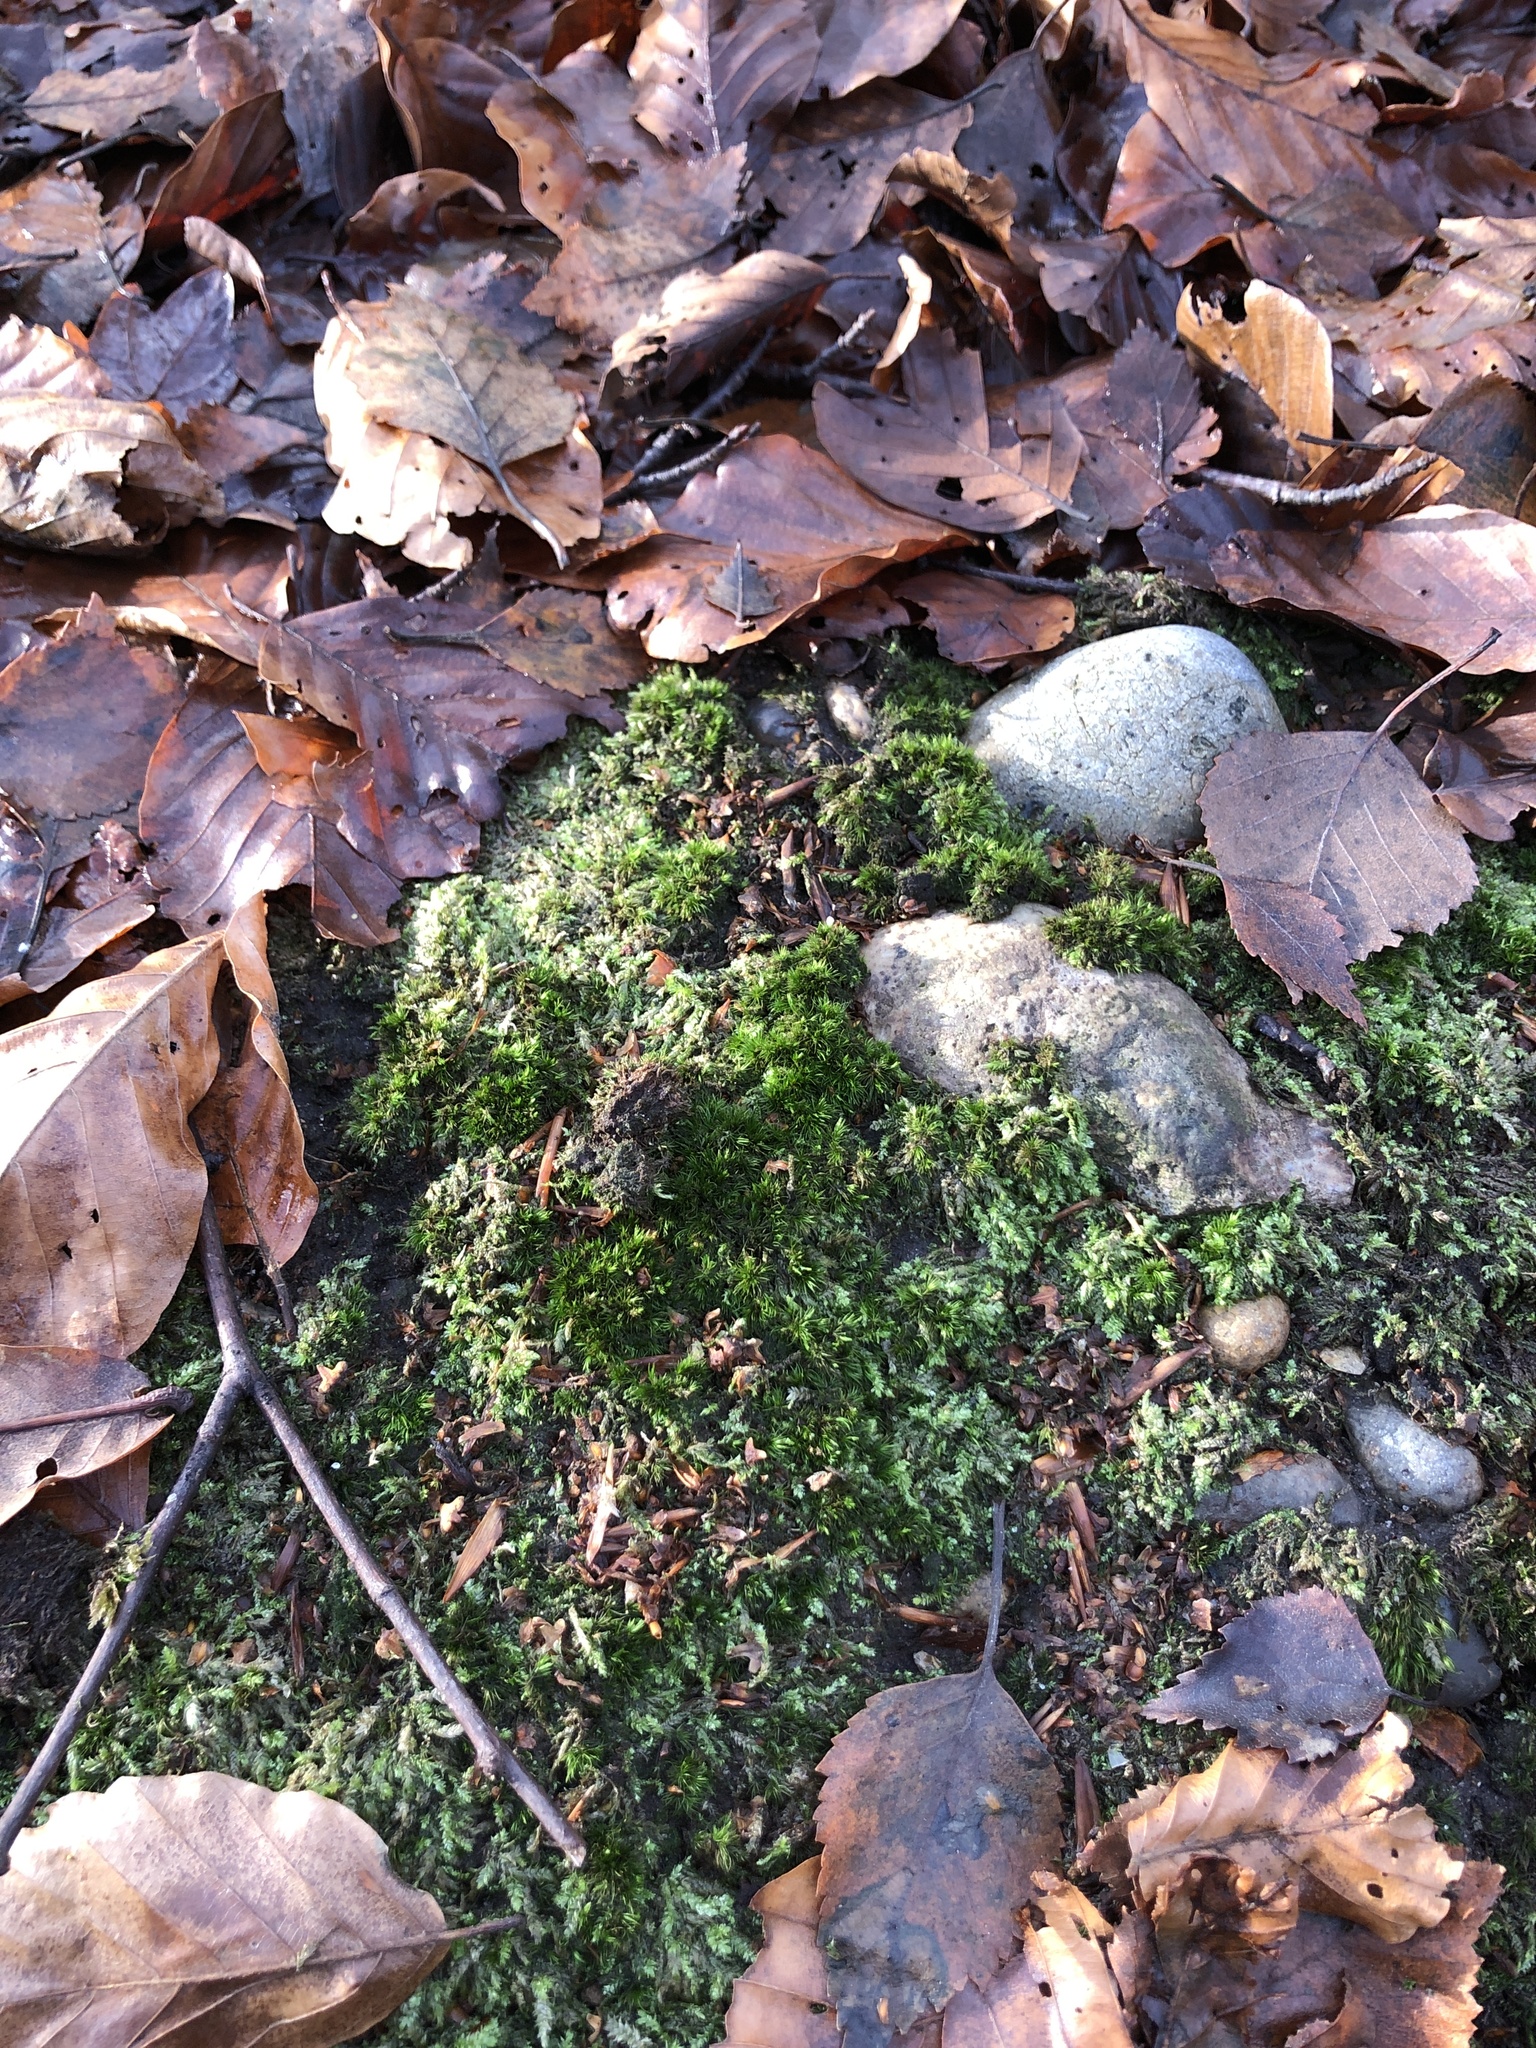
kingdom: Plantae
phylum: Bryophyta
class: Bryopsida
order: Dicranales
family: Leucobryaceae
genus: Campylopus
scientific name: Campylopus flexuosus
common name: Rusty swan-neck moss
